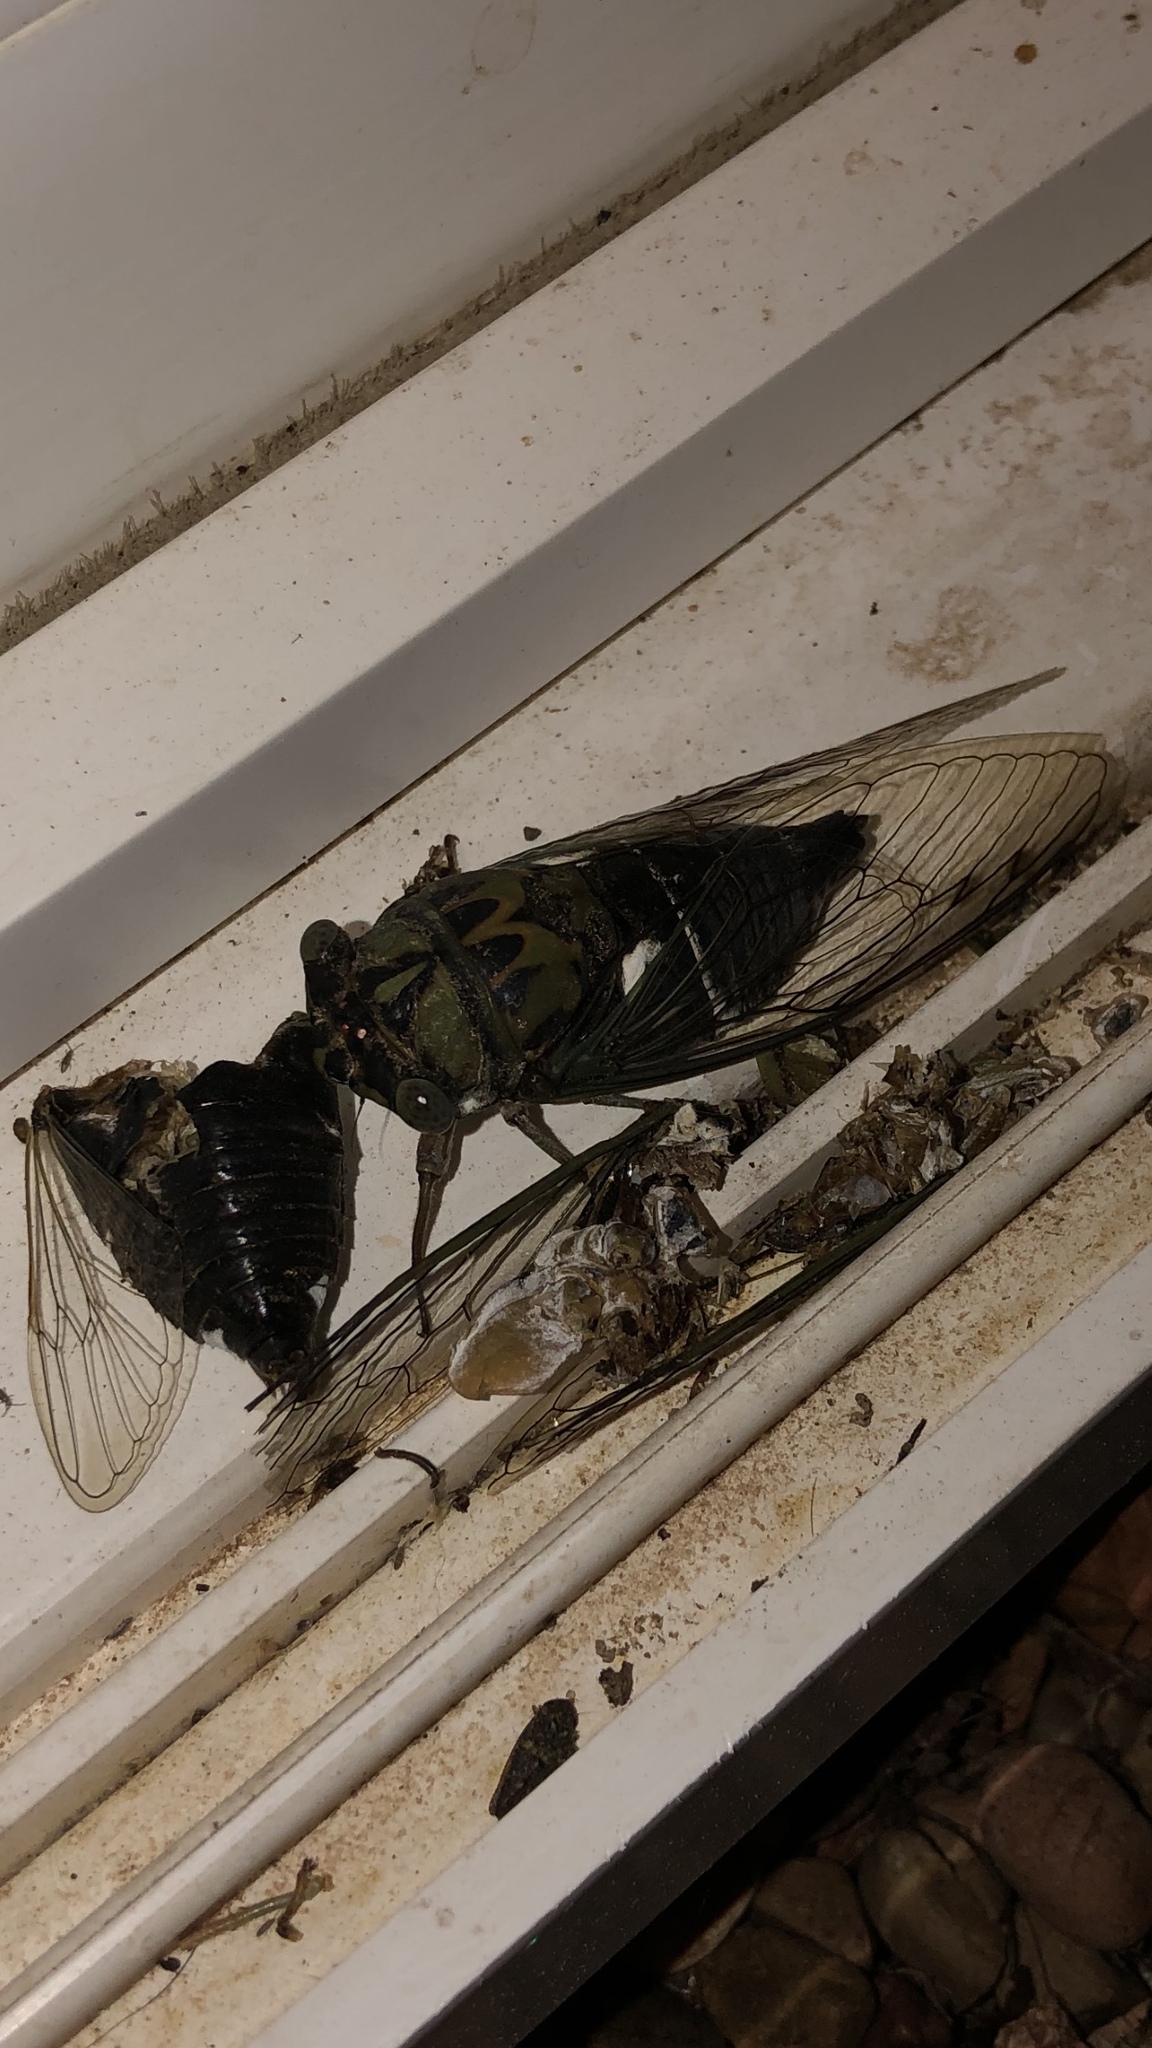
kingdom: Animalia
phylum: Arthropoda
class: Insecta
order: Hemiptera
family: Cicadidae
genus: Neotibicen
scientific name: Neotibicen pruinosus
